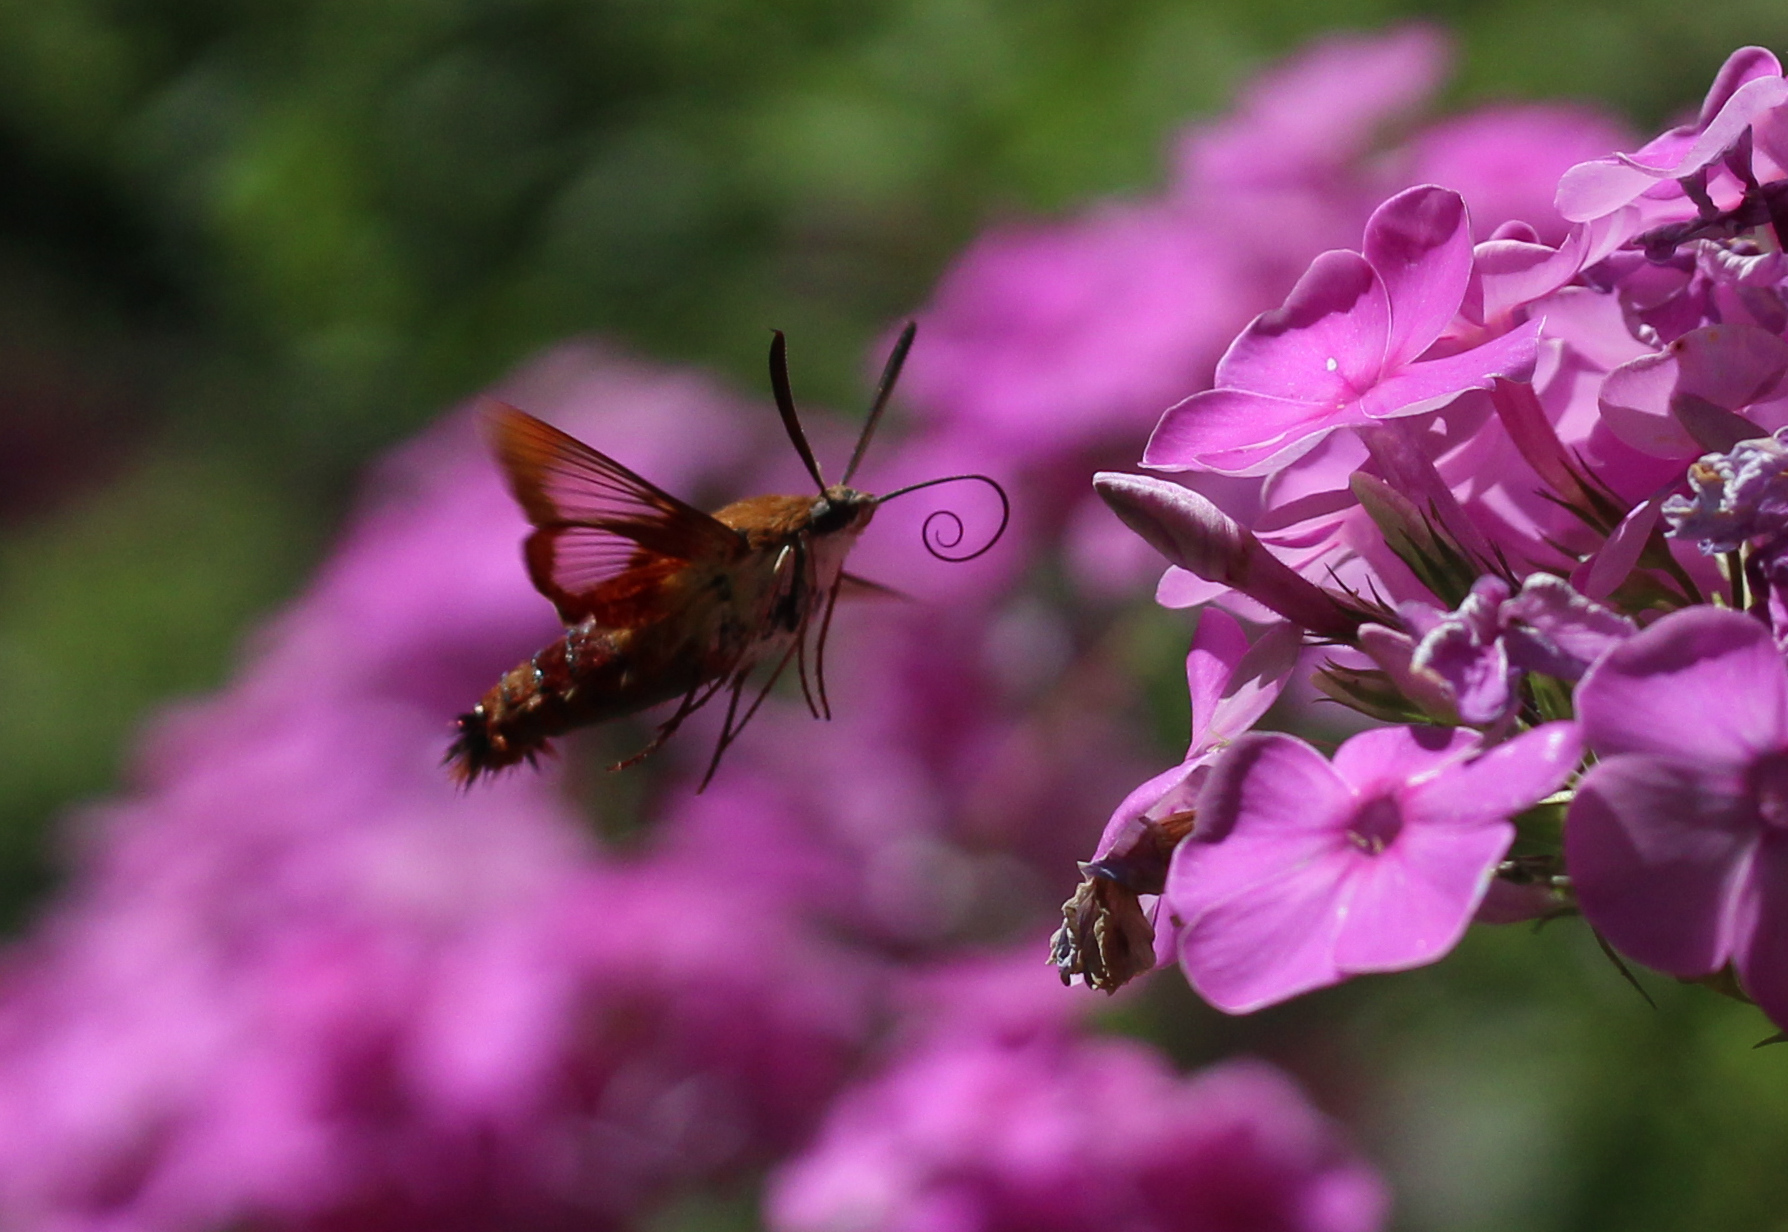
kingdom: Animalia
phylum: Arthropoda
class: Insecta
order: Lepidoptera
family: Sphingidae
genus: Hemaris
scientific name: Hemaris thysbe
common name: Common clear-wing
